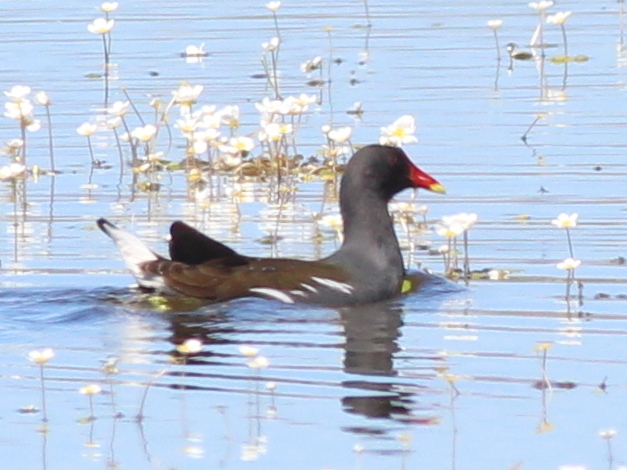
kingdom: Animalia
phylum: Chordata
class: Aves
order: Gruiformes
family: Rallidae
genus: Gallinula
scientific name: Gallinula chloropus
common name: Common moorhen
